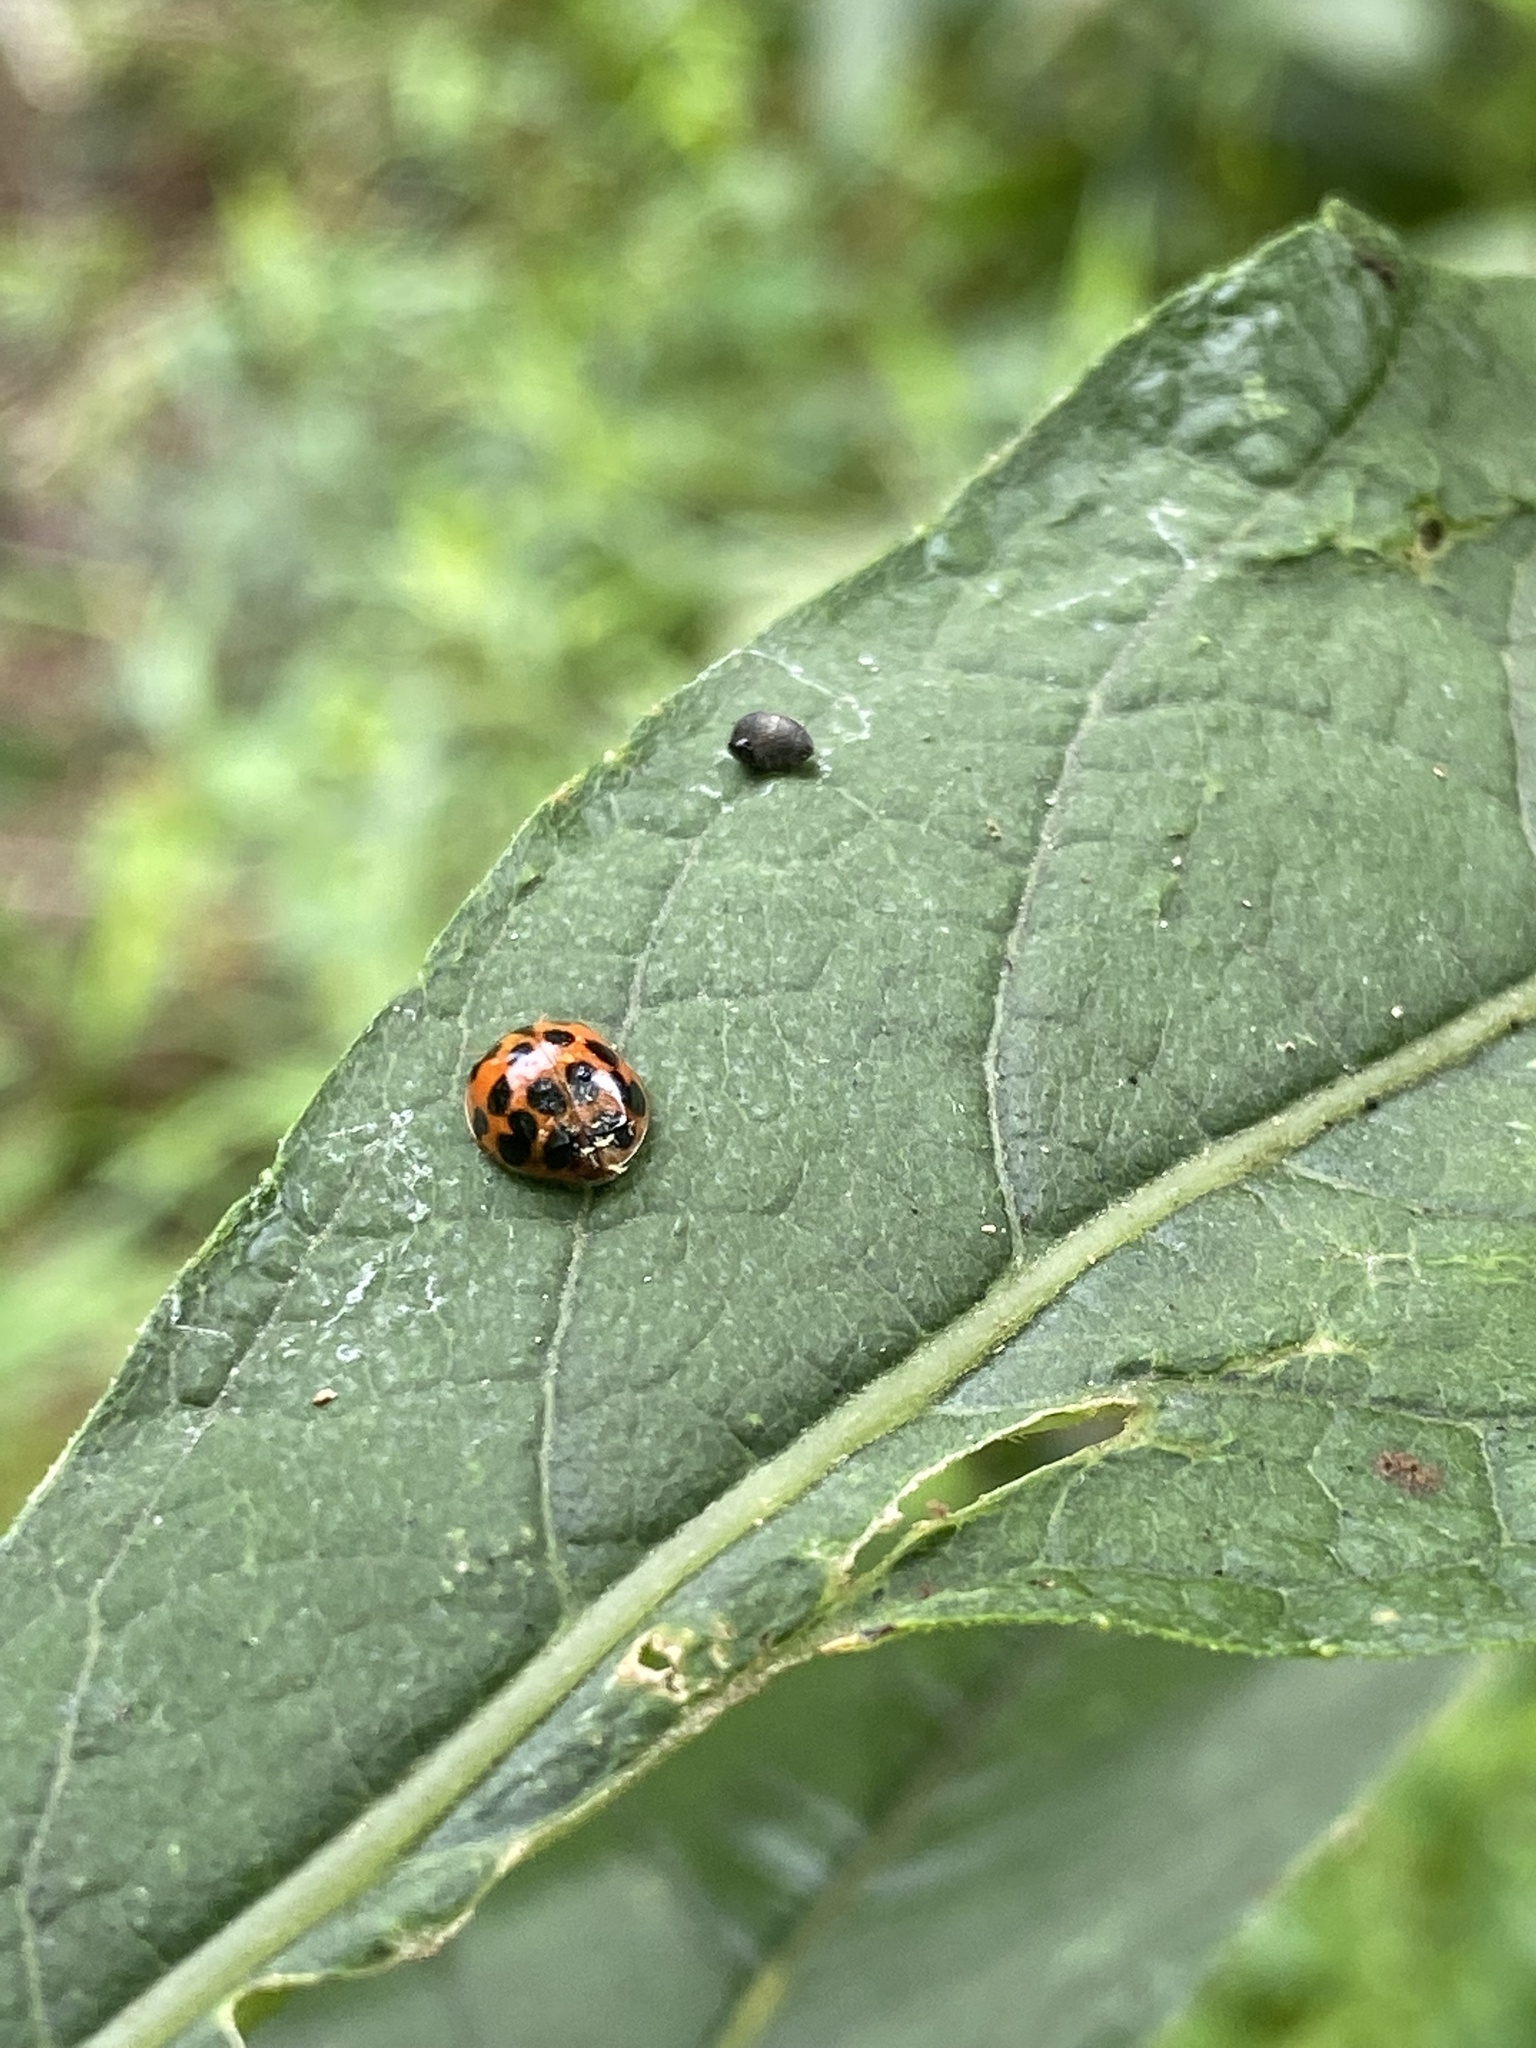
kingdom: Animalia
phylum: Arthropoda
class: Insecta
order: Coleoptera
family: Coccinellidae
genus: Harmonia
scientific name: Harmonia axyridis
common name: Harlequin ladybird
